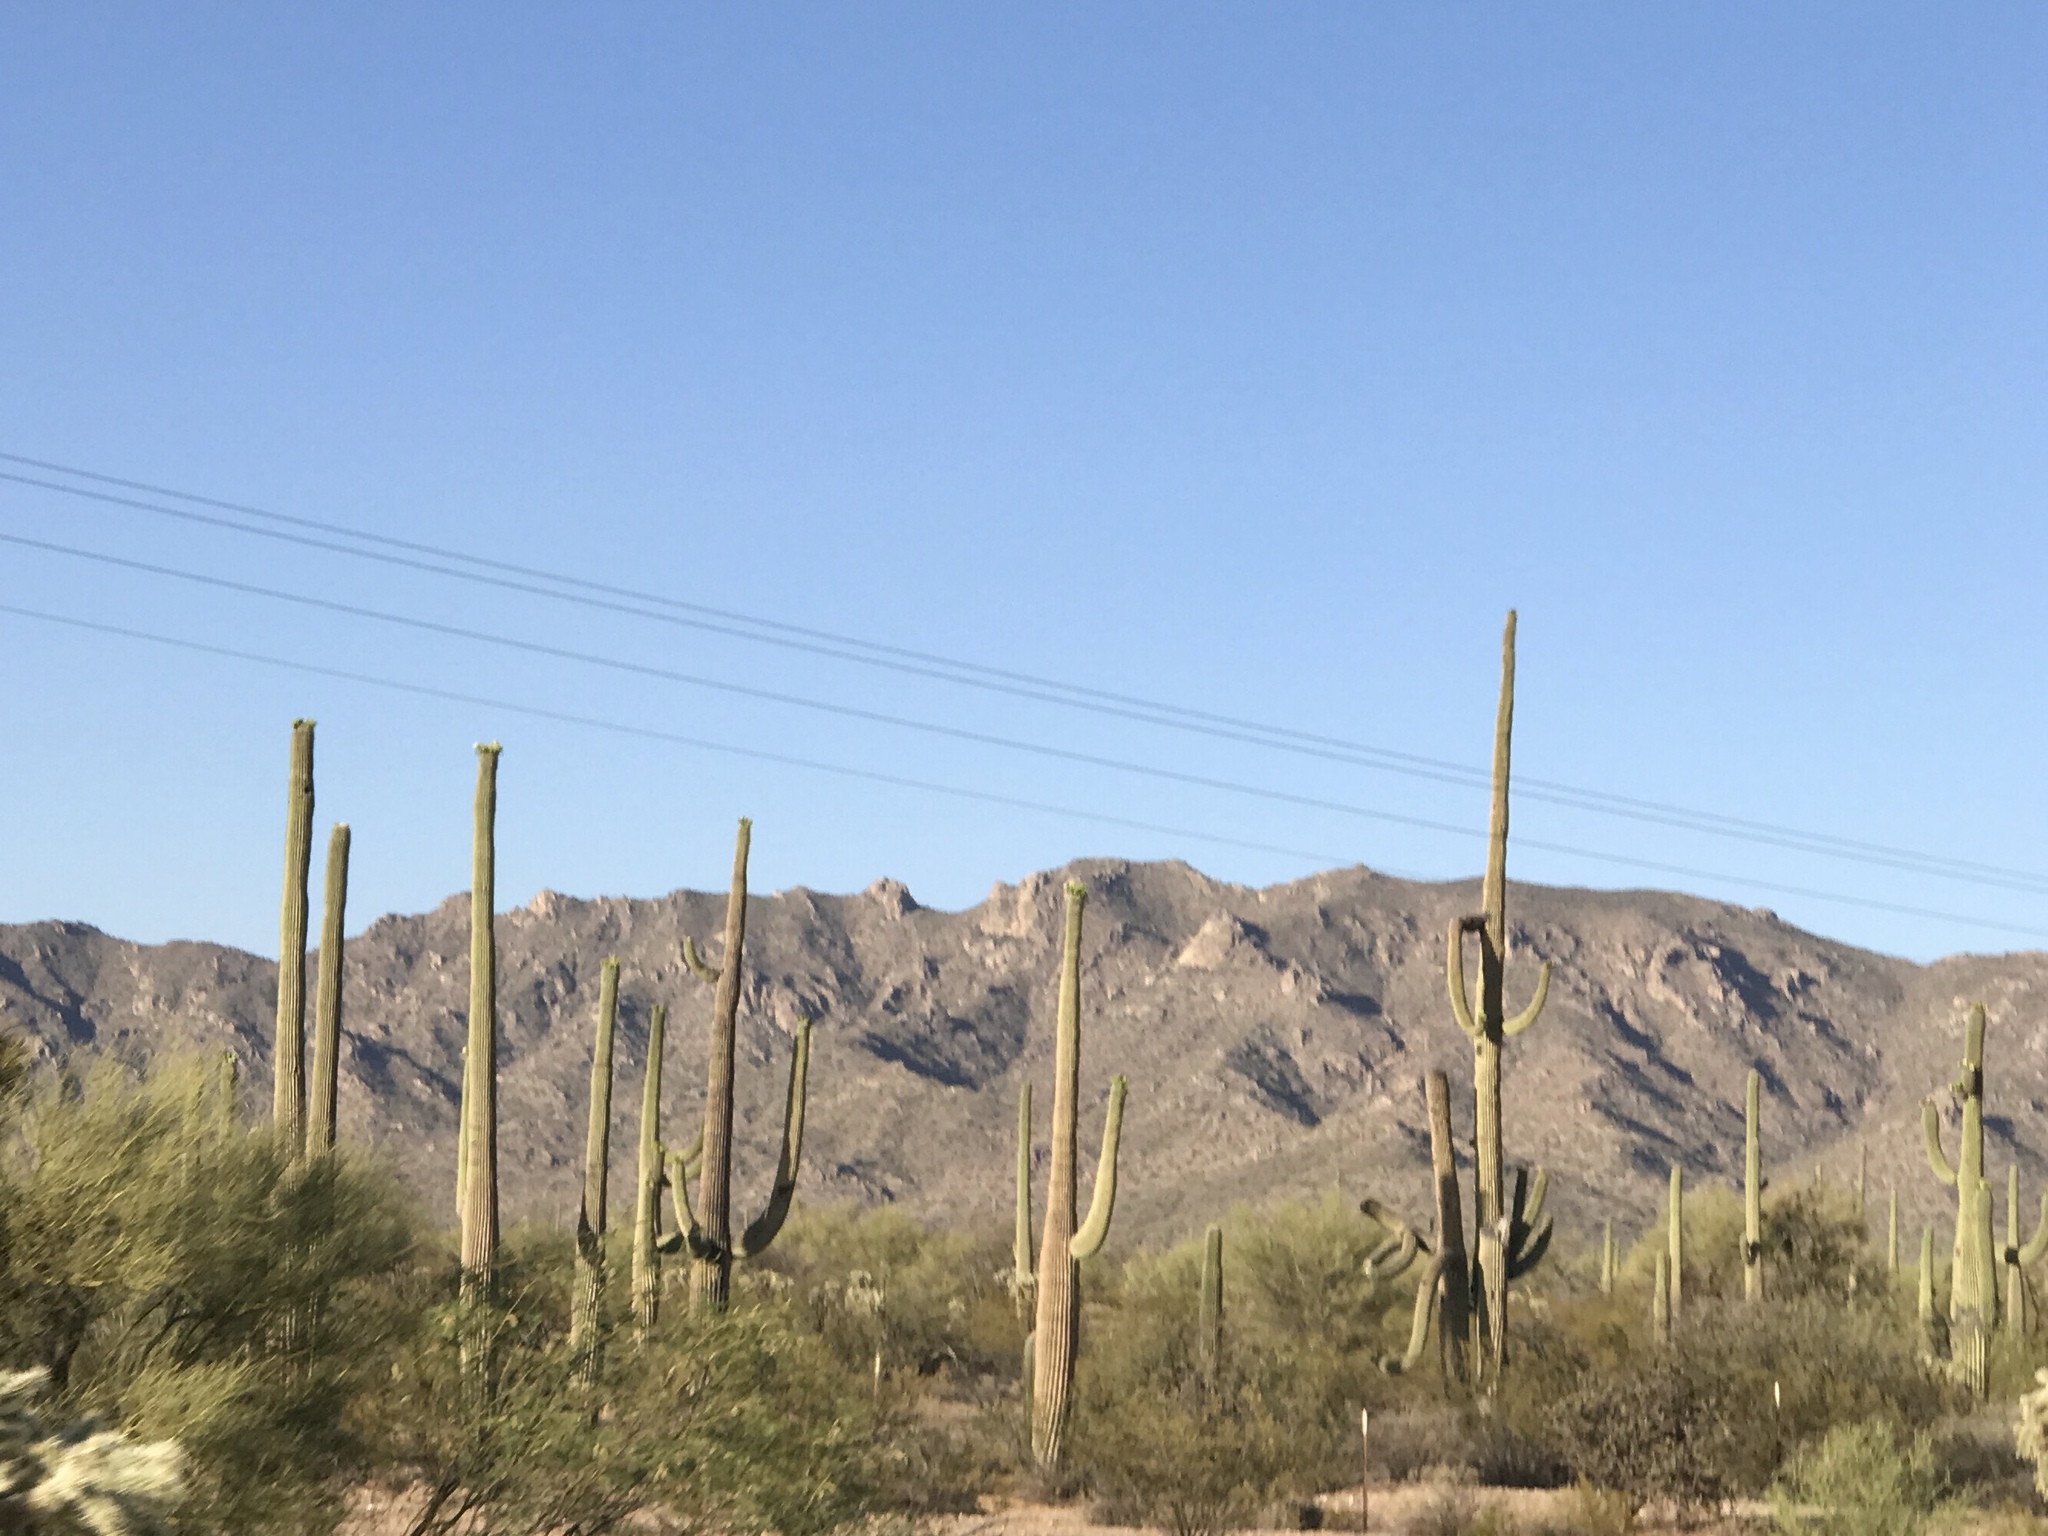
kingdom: Plantae
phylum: Tracheophyta
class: Magnoliopsida
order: Caryophyllales
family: Cactaceae
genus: Carnegiea
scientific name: Carnegiea gigantea
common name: Saguaro
